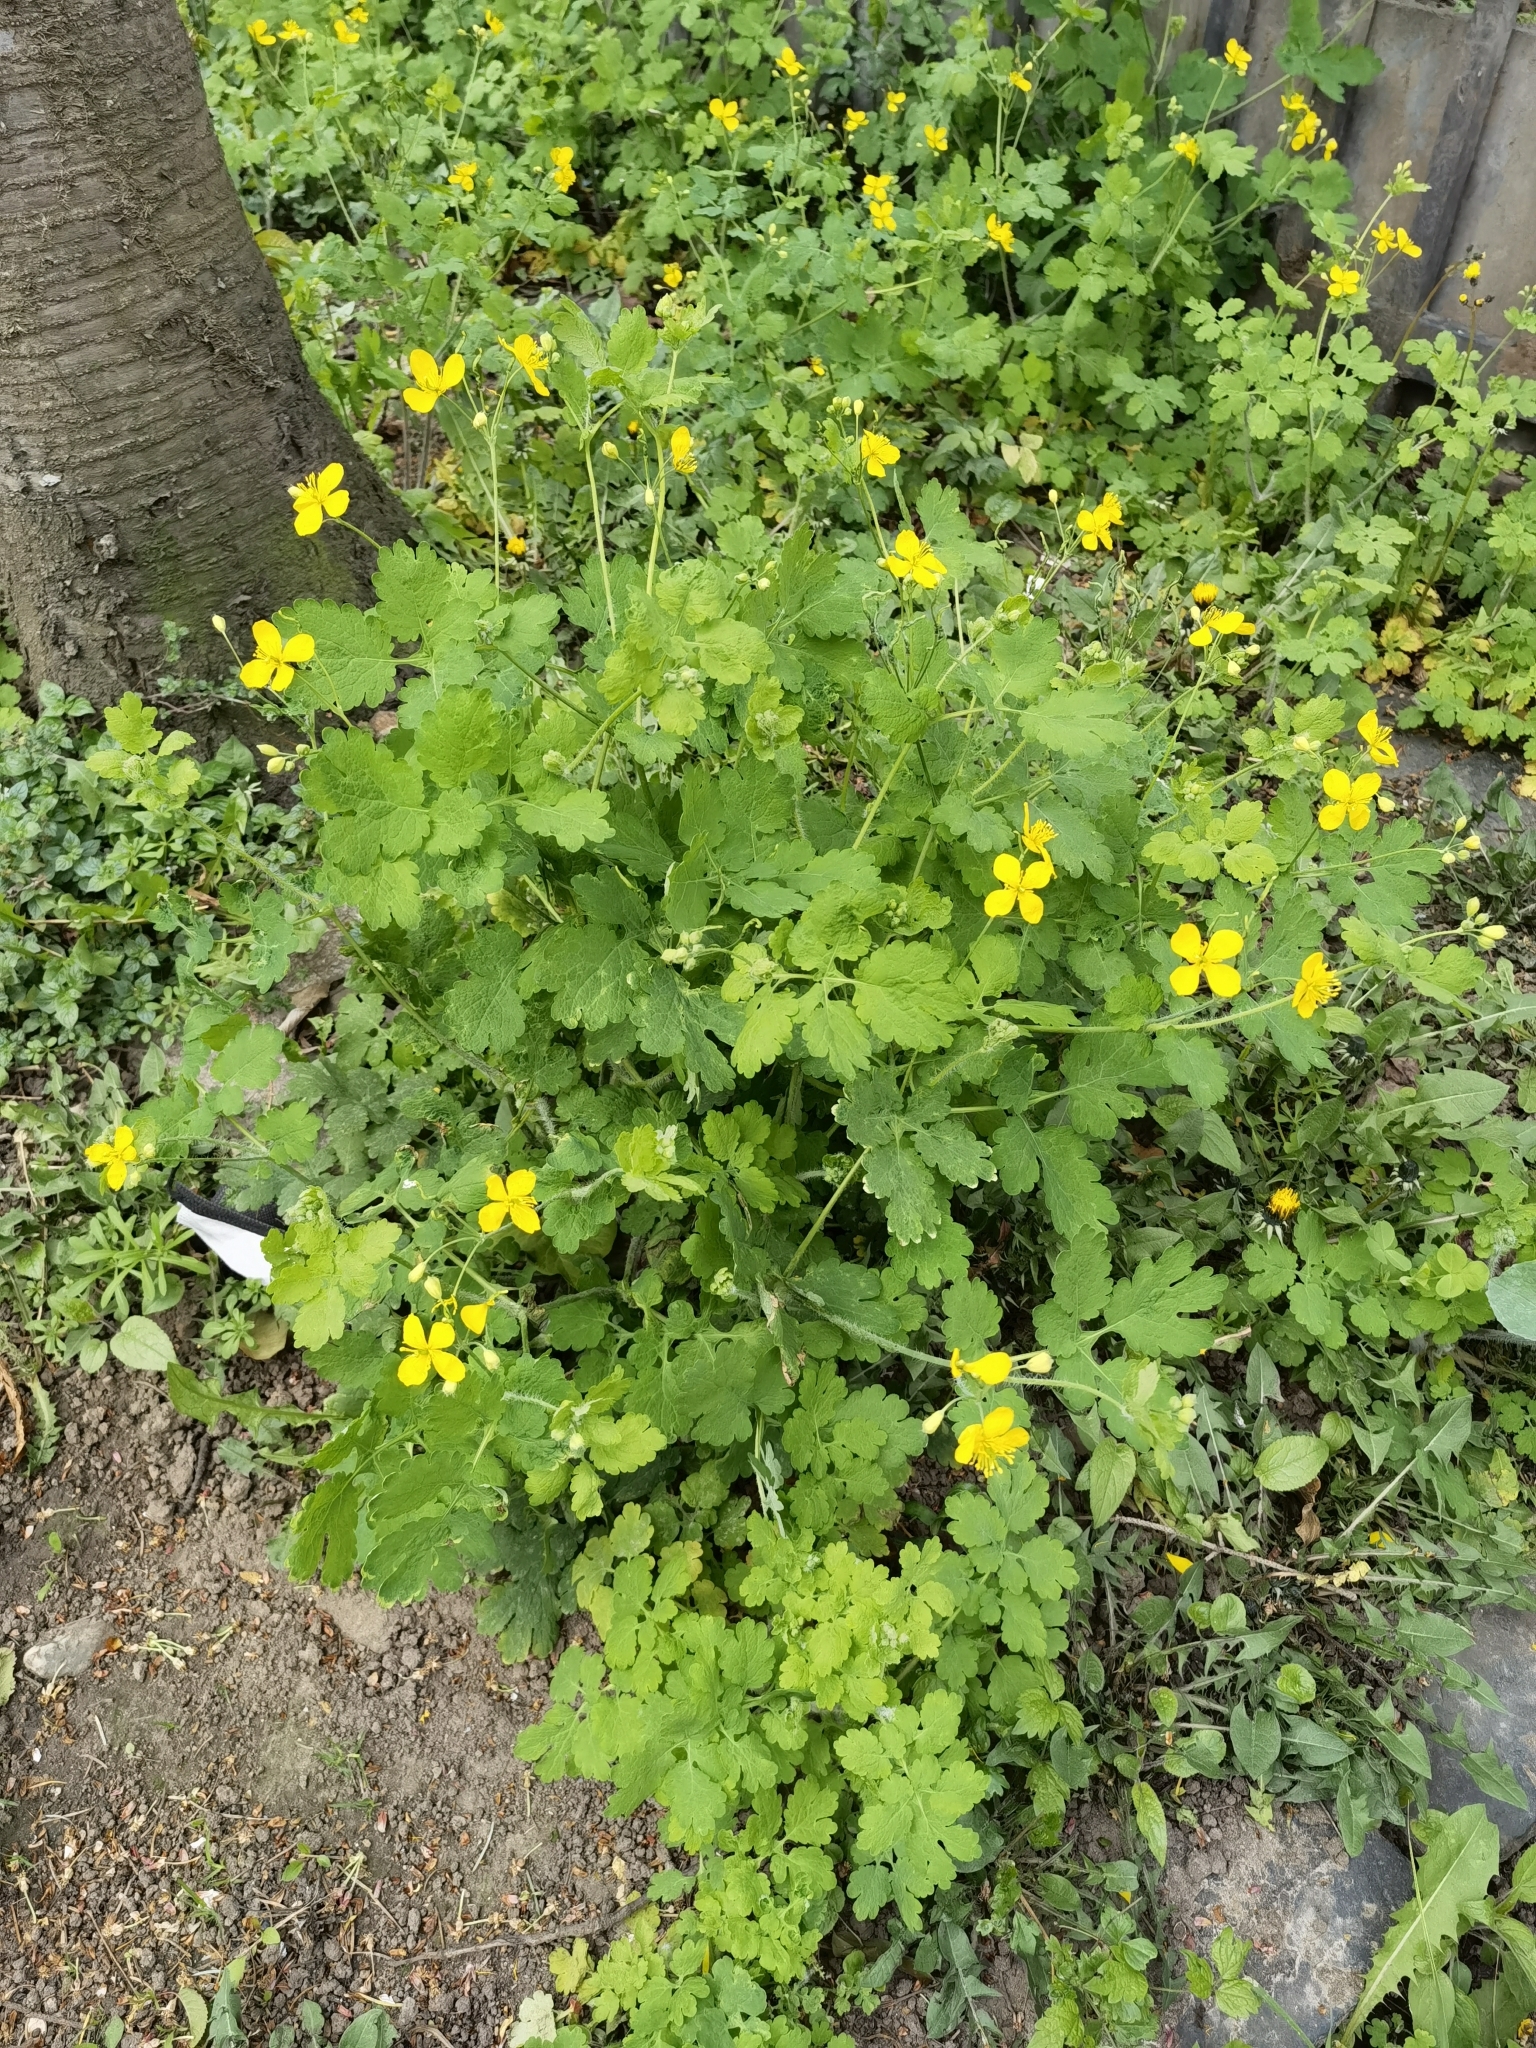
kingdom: Plantae
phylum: Tracheophyta
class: Magnoliopsida
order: Ranunculales
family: Papaveraceae
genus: Chelidonium
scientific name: Chelidonium majus
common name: Greater celandine
